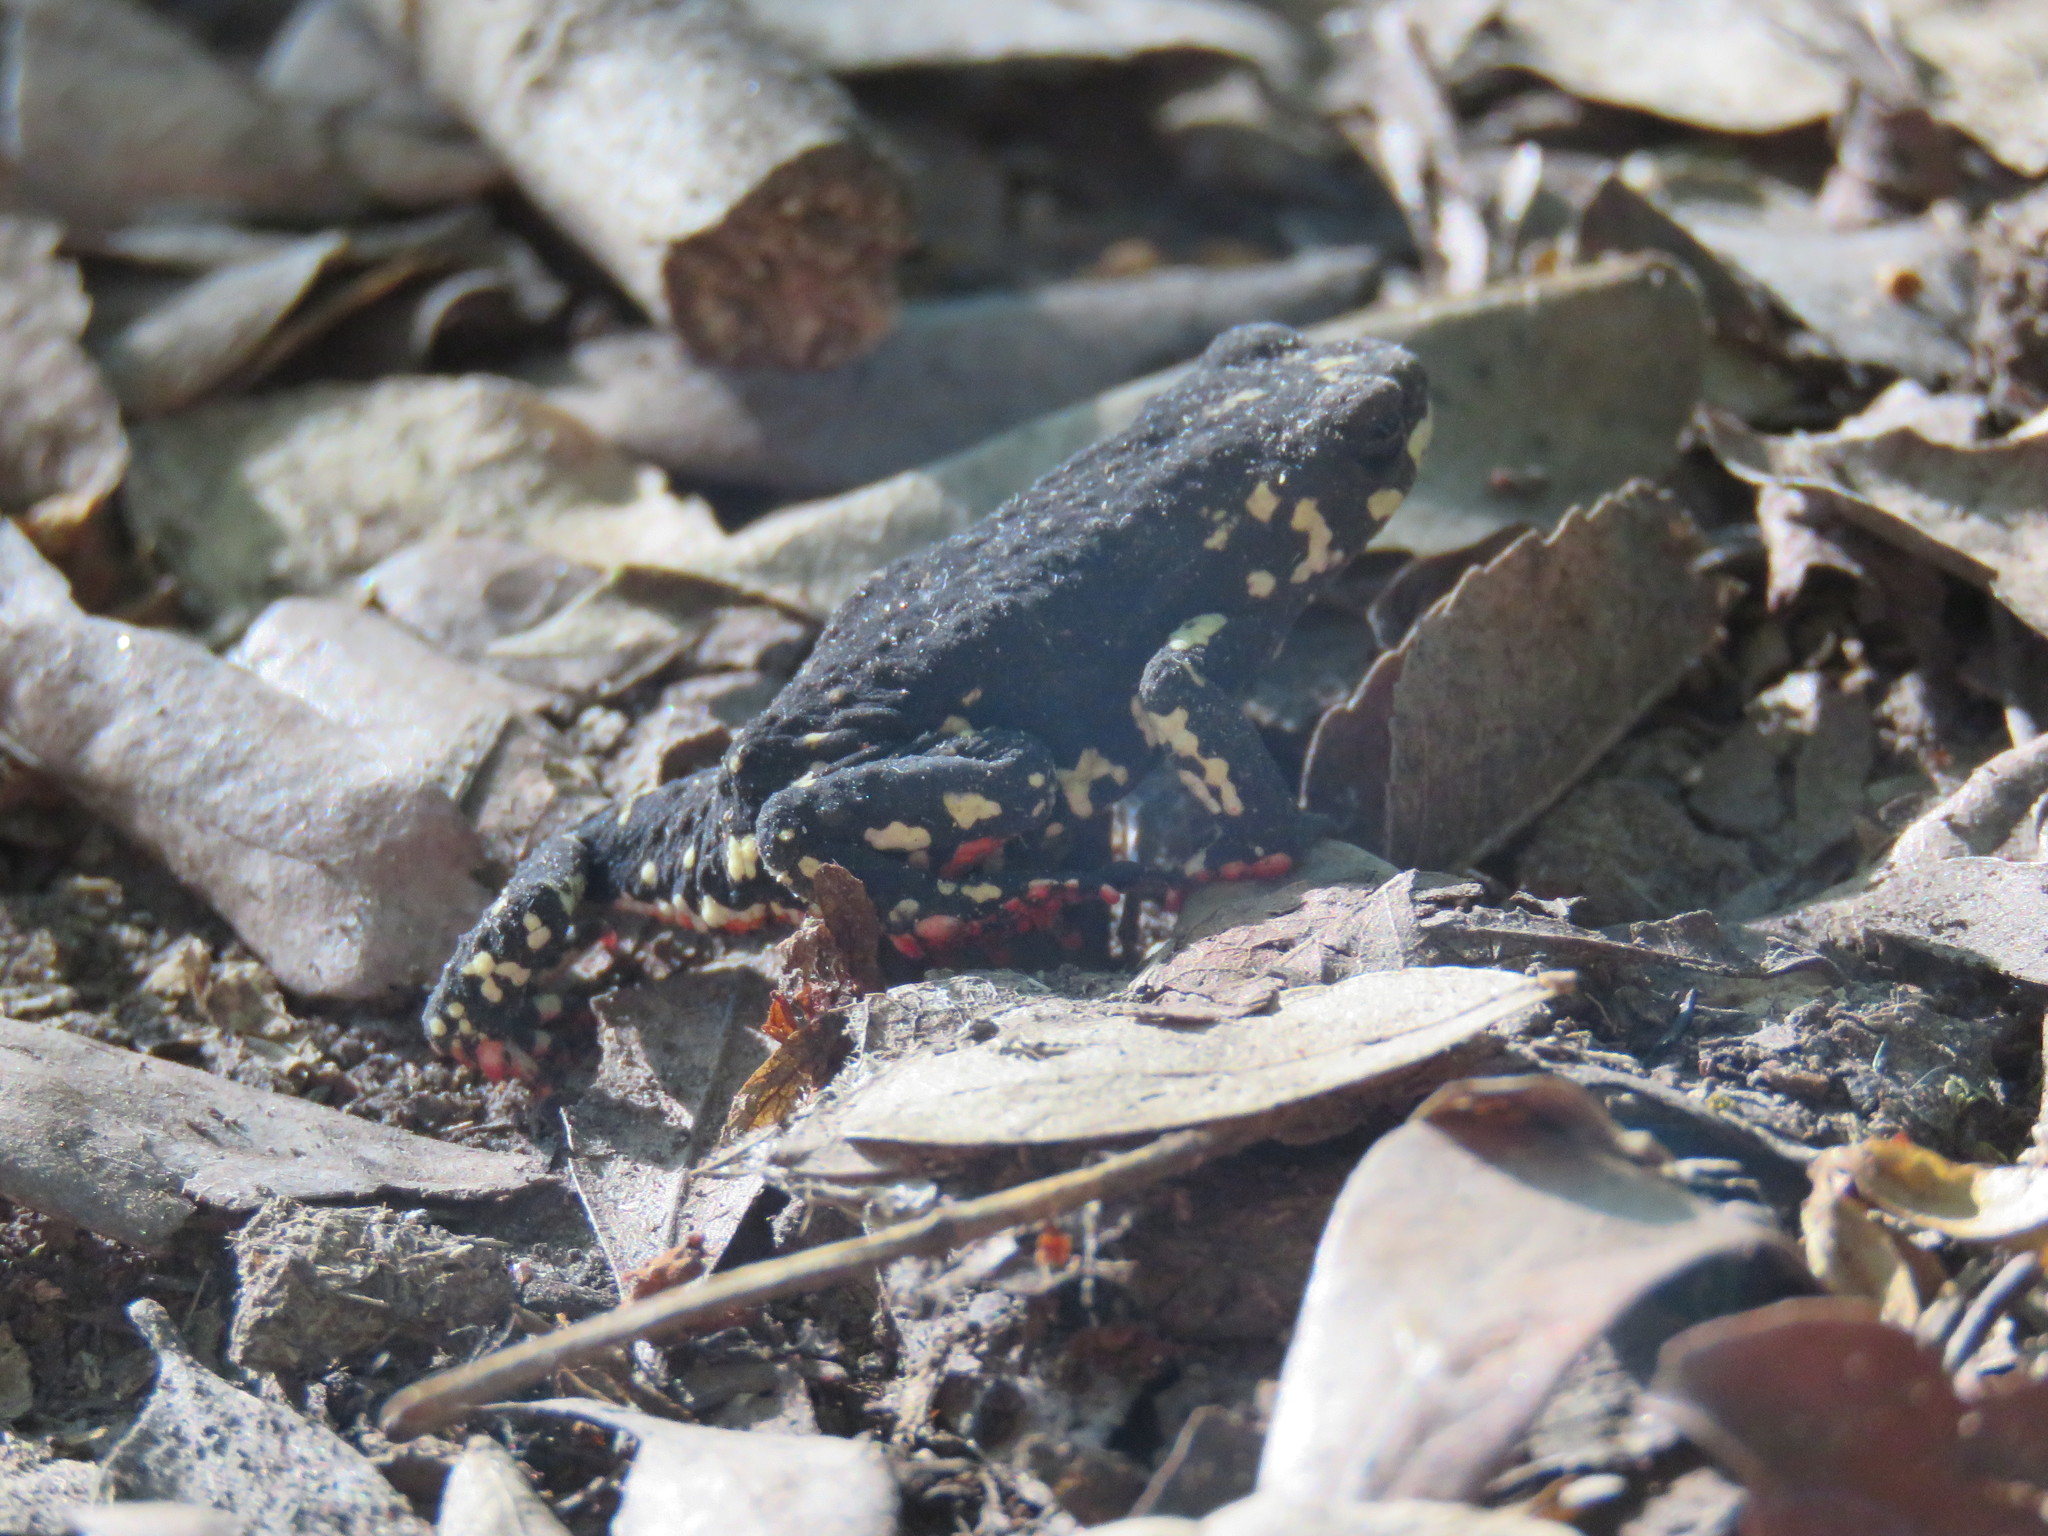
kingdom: Animalia
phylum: Chordata
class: Amphibia
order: Anura
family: Bufonidae
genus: Melanophryniscus
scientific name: Melanophryniscus klappenbachi
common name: Klappenbach’s red-bellied toad
